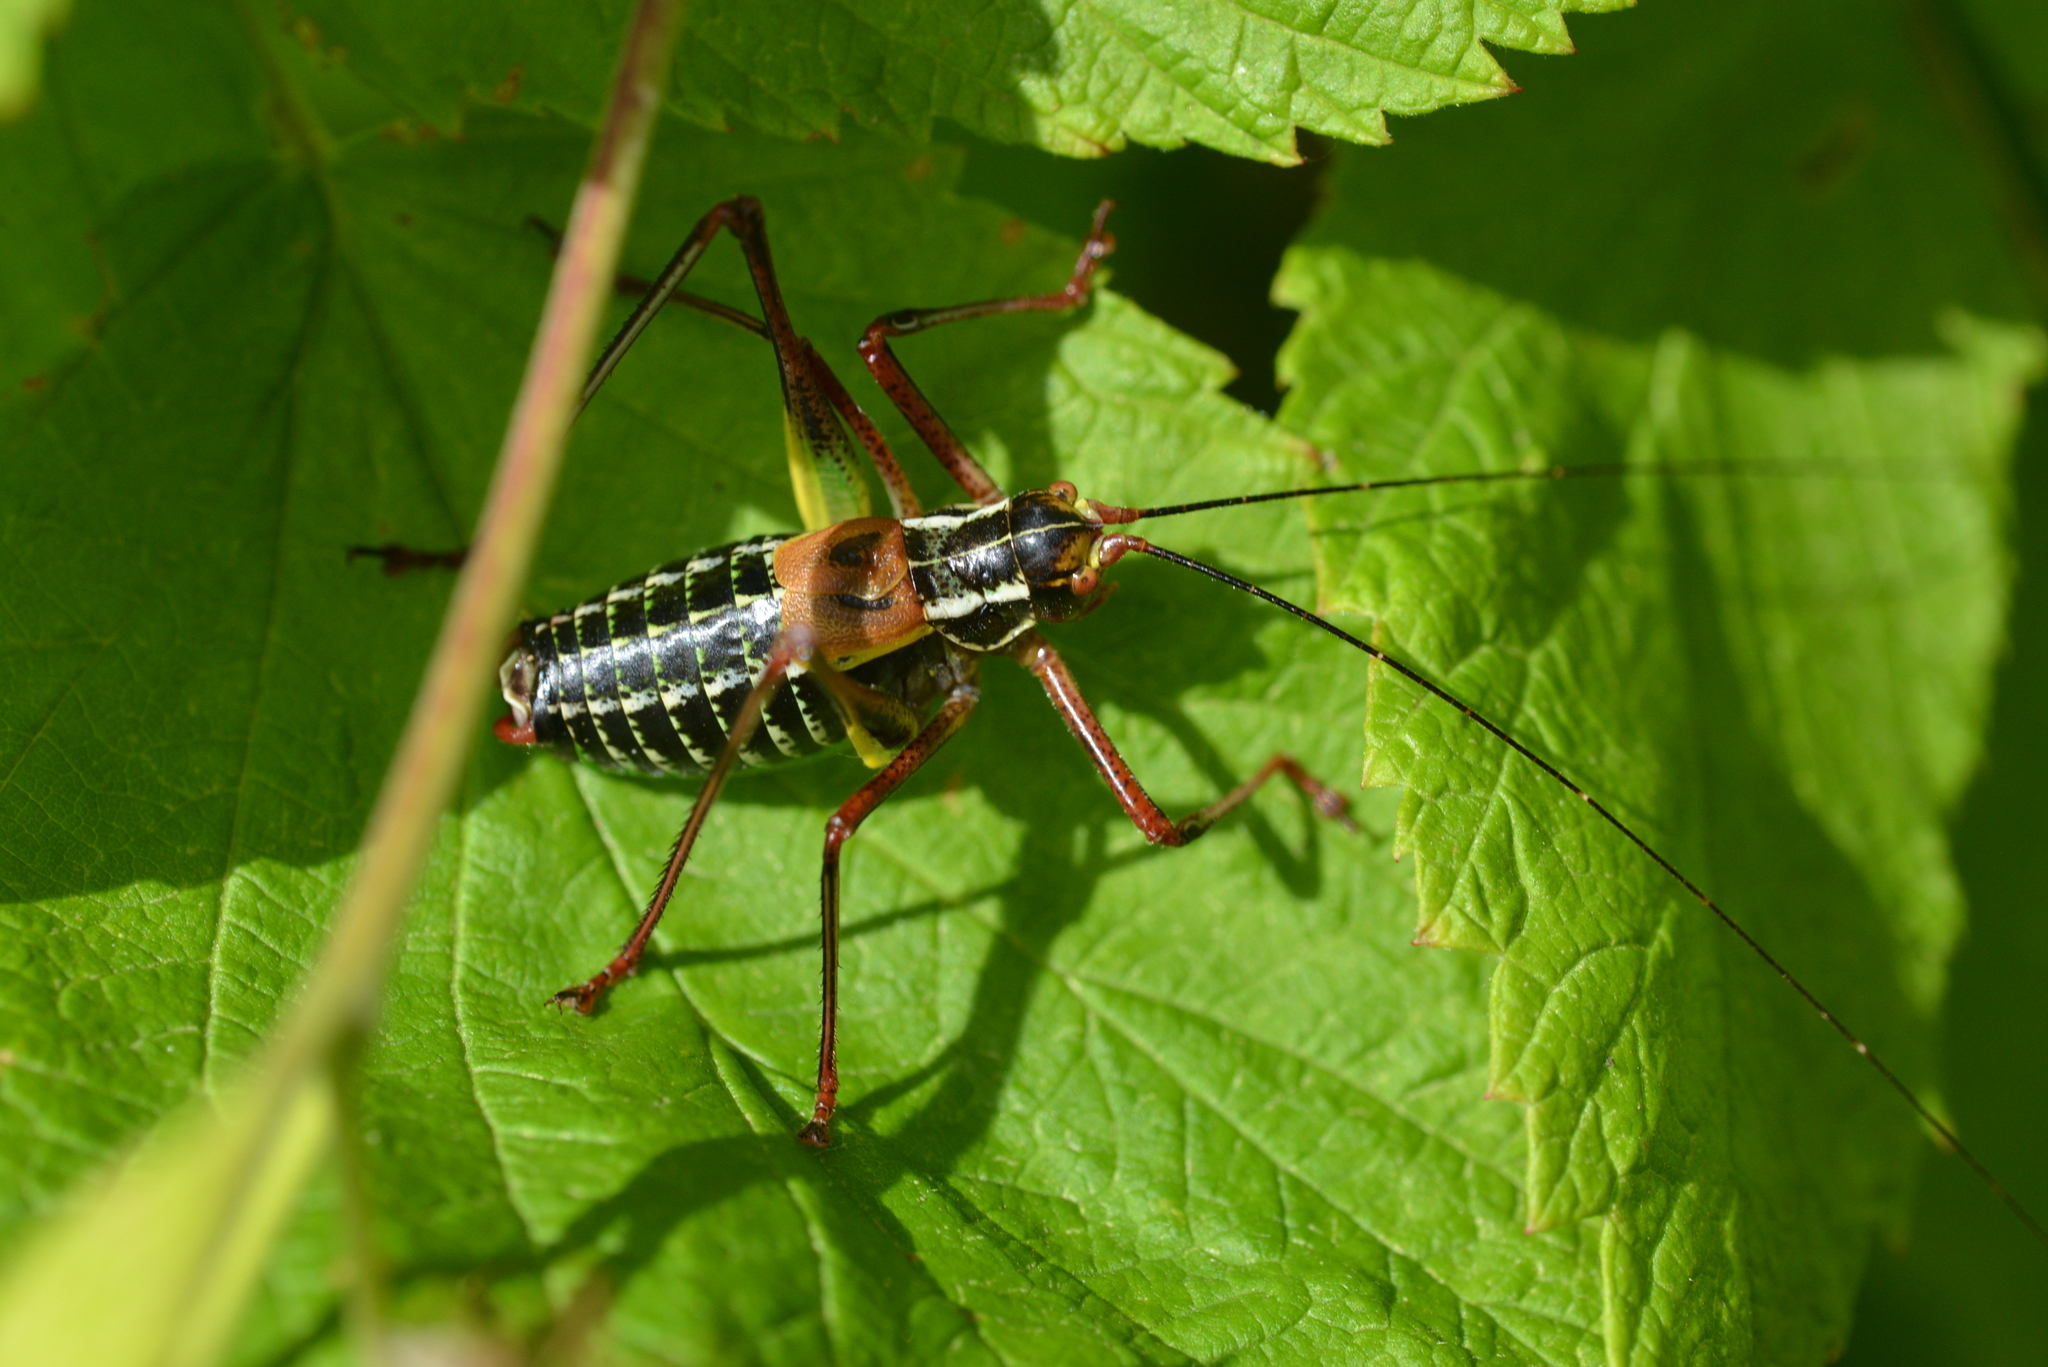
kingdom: Animalia
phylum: Arthropoda
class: Insecta
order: Orthoptera
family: Tettigoniidae
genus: Barbitistes
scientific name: Barbitistes constrictus
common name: Eastern saw-tailed bush cricket
